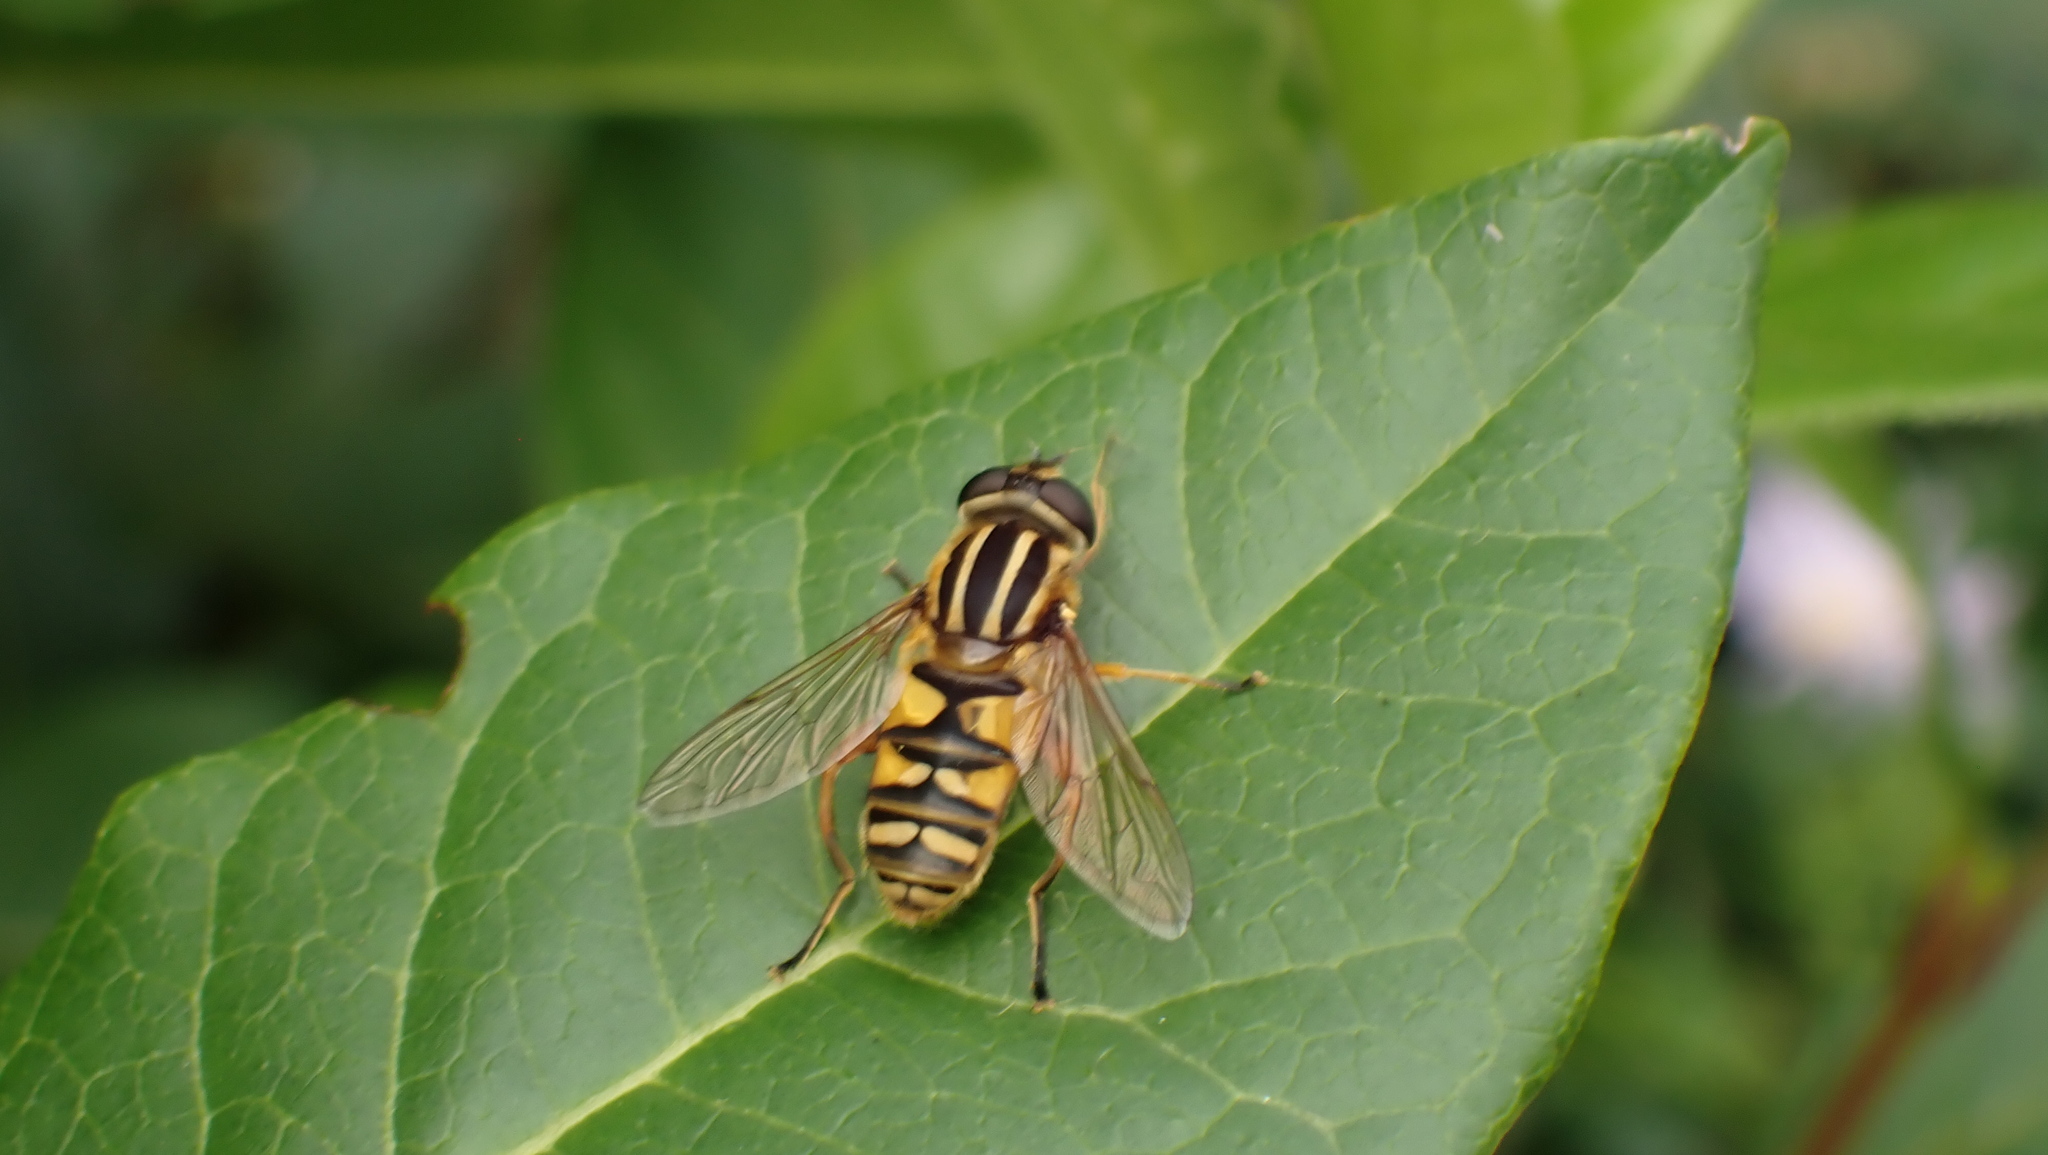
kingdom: Animalia
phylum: Arthropoda
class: Insecta
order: Diptera
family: Syrphidae
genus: Helophilus
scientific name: Helophilus pendulus
